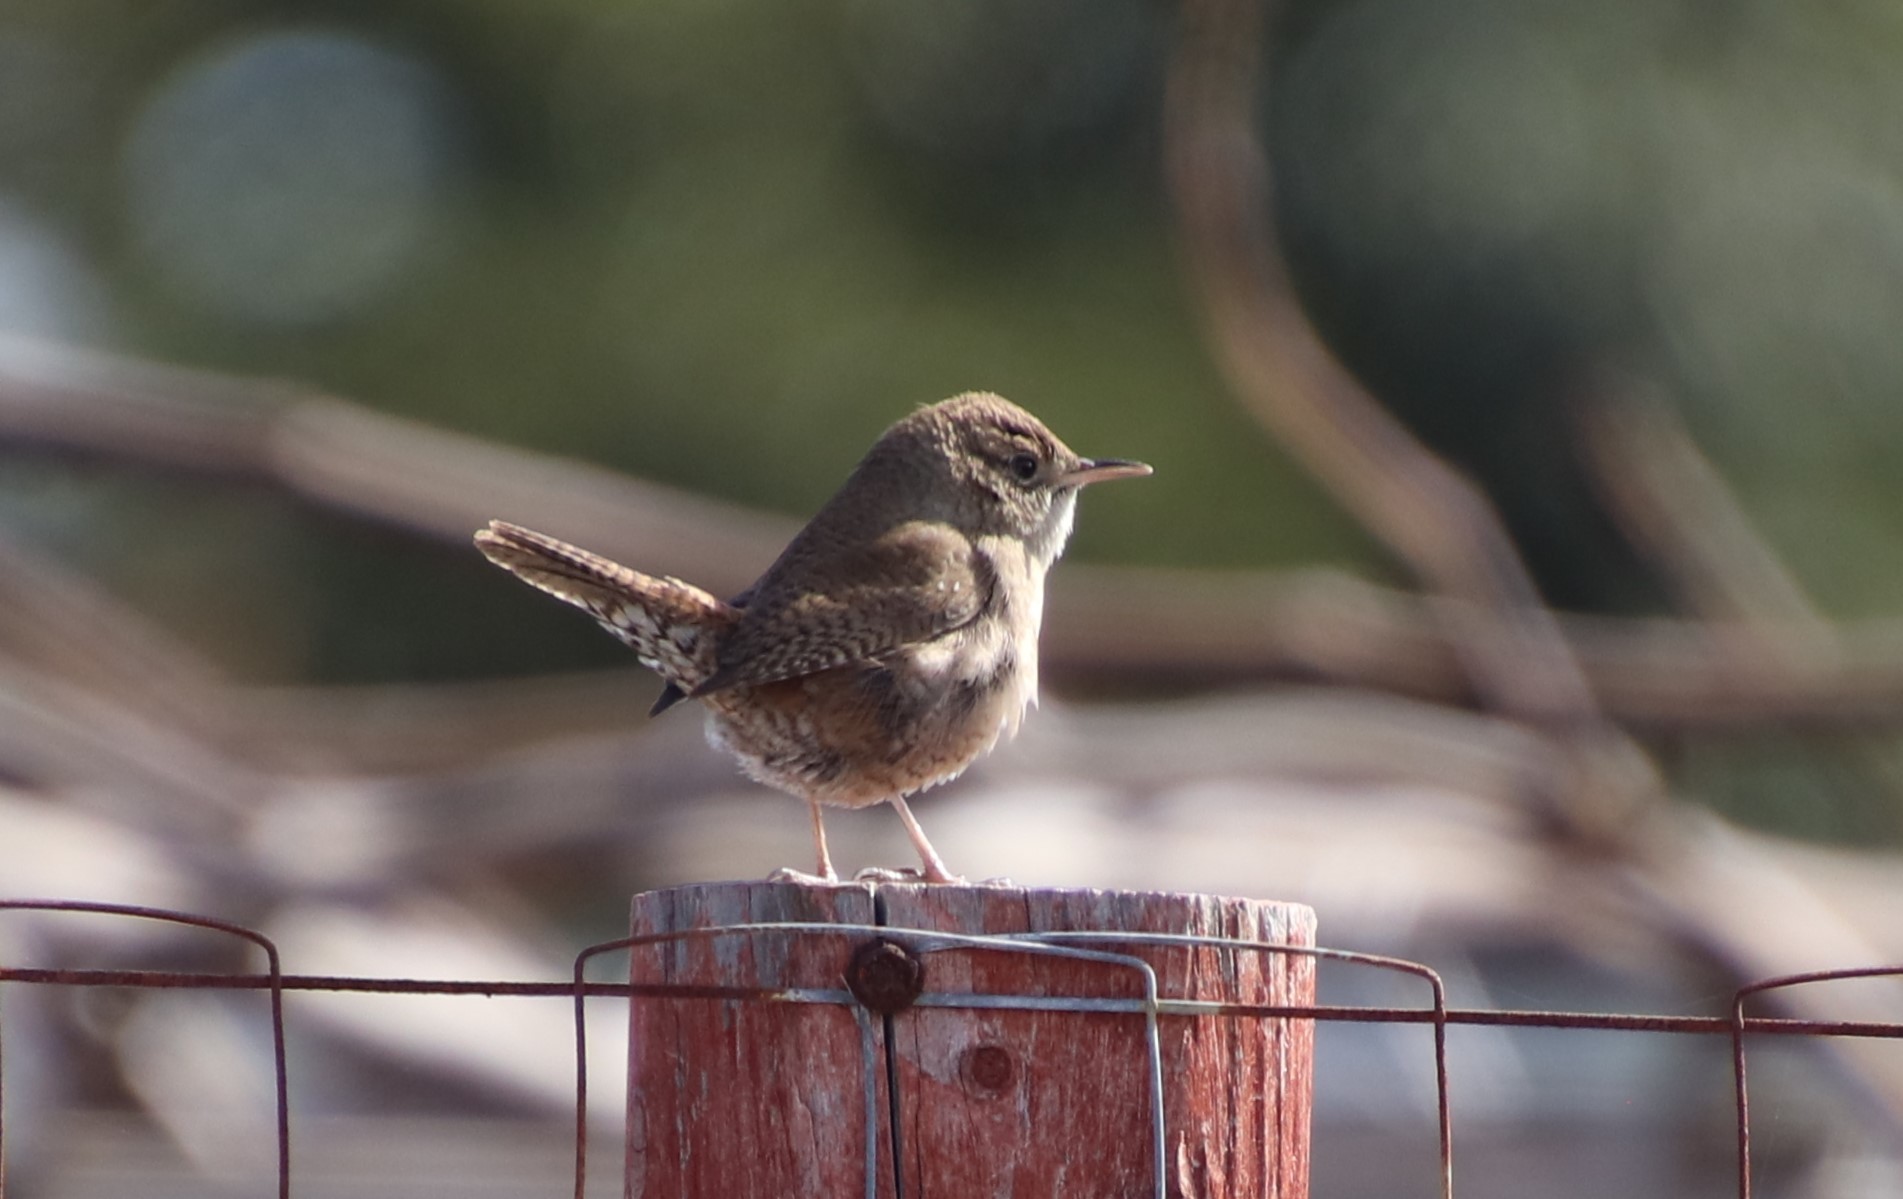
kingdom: Animalia
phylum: Chordata
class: Aves
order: Passeriformes
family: Troglodytidae
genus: Troglodytes
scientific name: Troglodytes aedon
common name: House wren
